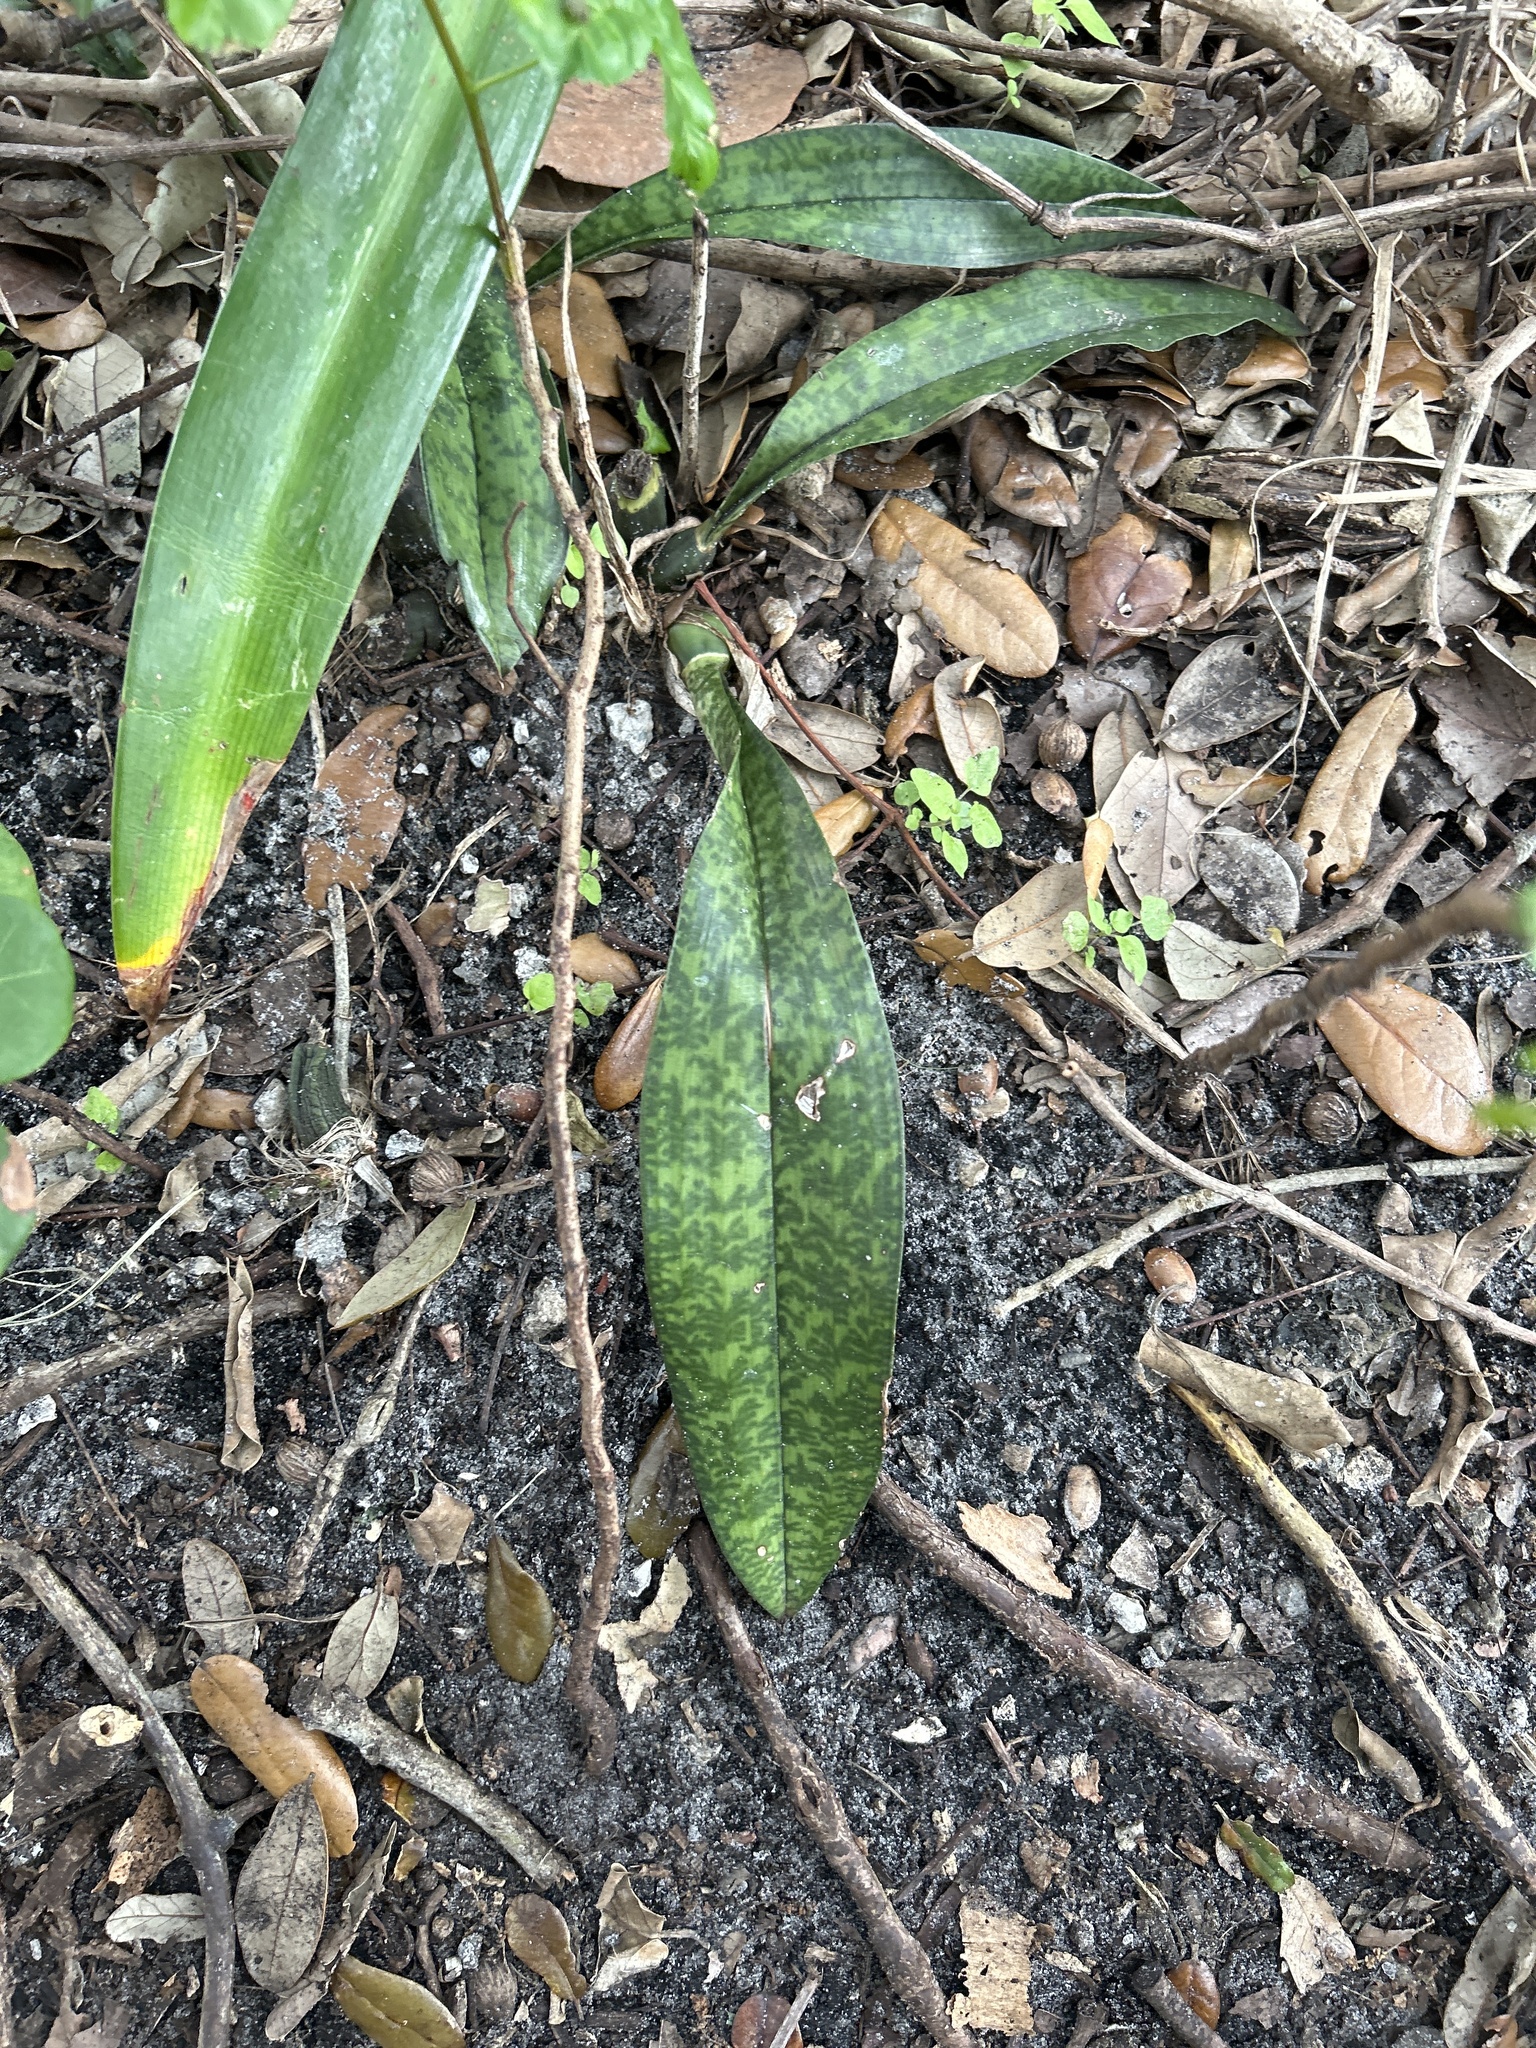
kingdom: Plantae
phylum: Tracheophyta
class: Liliopsida
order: Asparagales
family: Orchidaceae
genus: Eulophia
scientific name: Eulophia maculata
